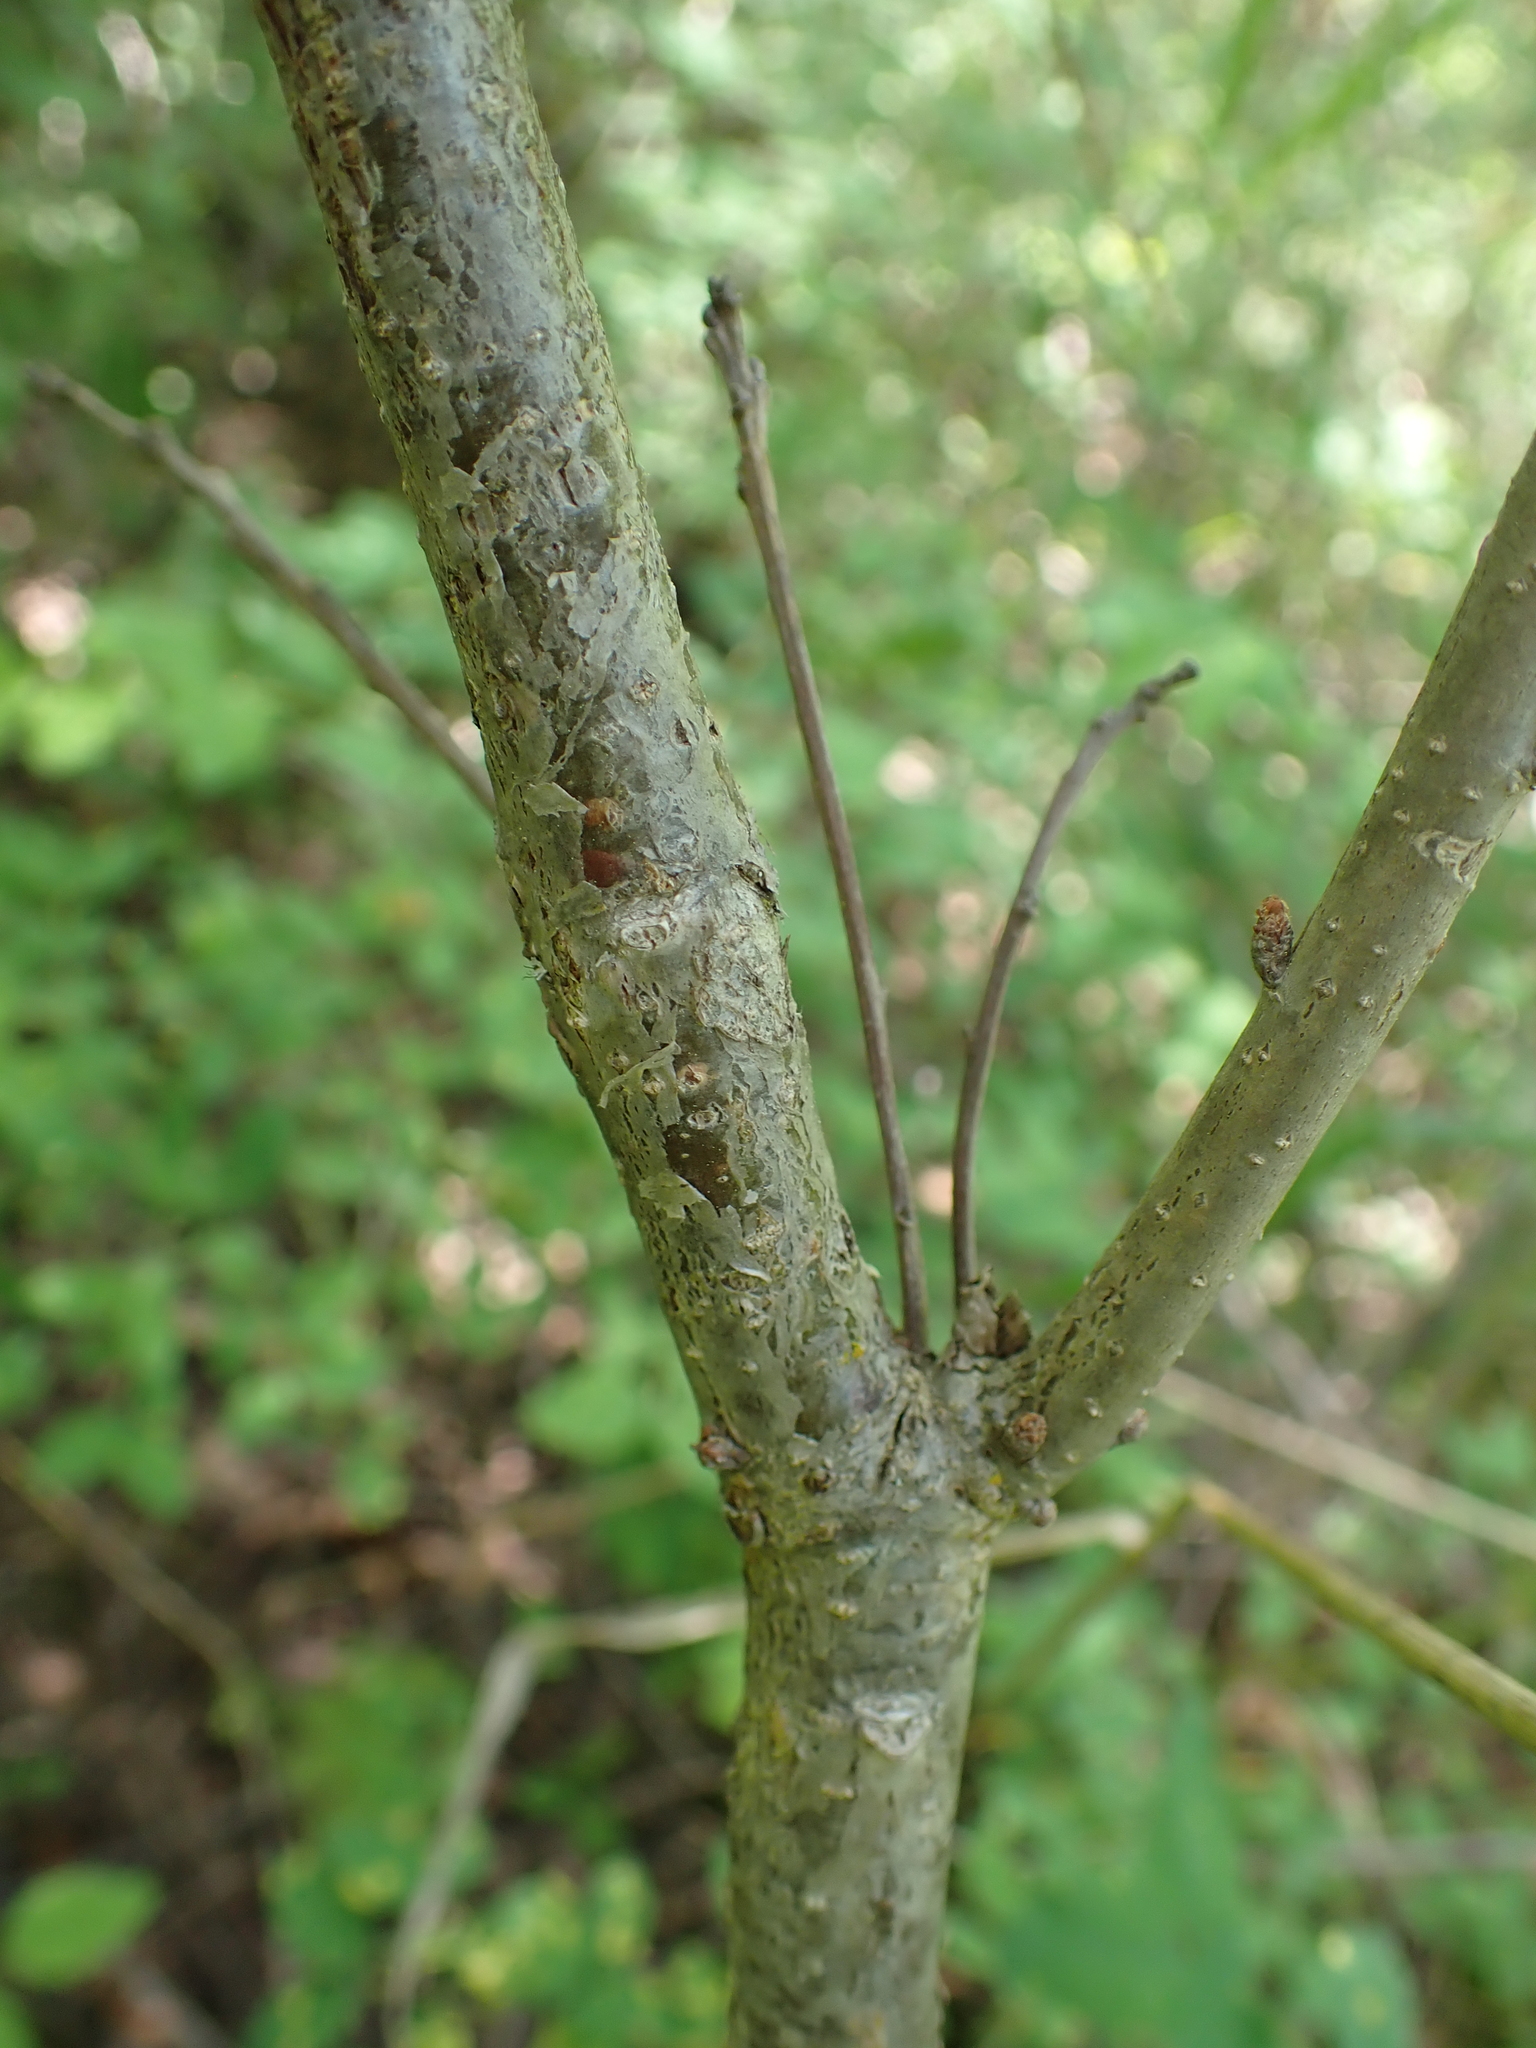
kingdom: Plantae
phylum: Tracheophyta
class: Magnoliopsida
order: Fagales
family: Fagaceae
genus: Quercus
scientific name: Quercus macrocarpa
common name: Bur oak
